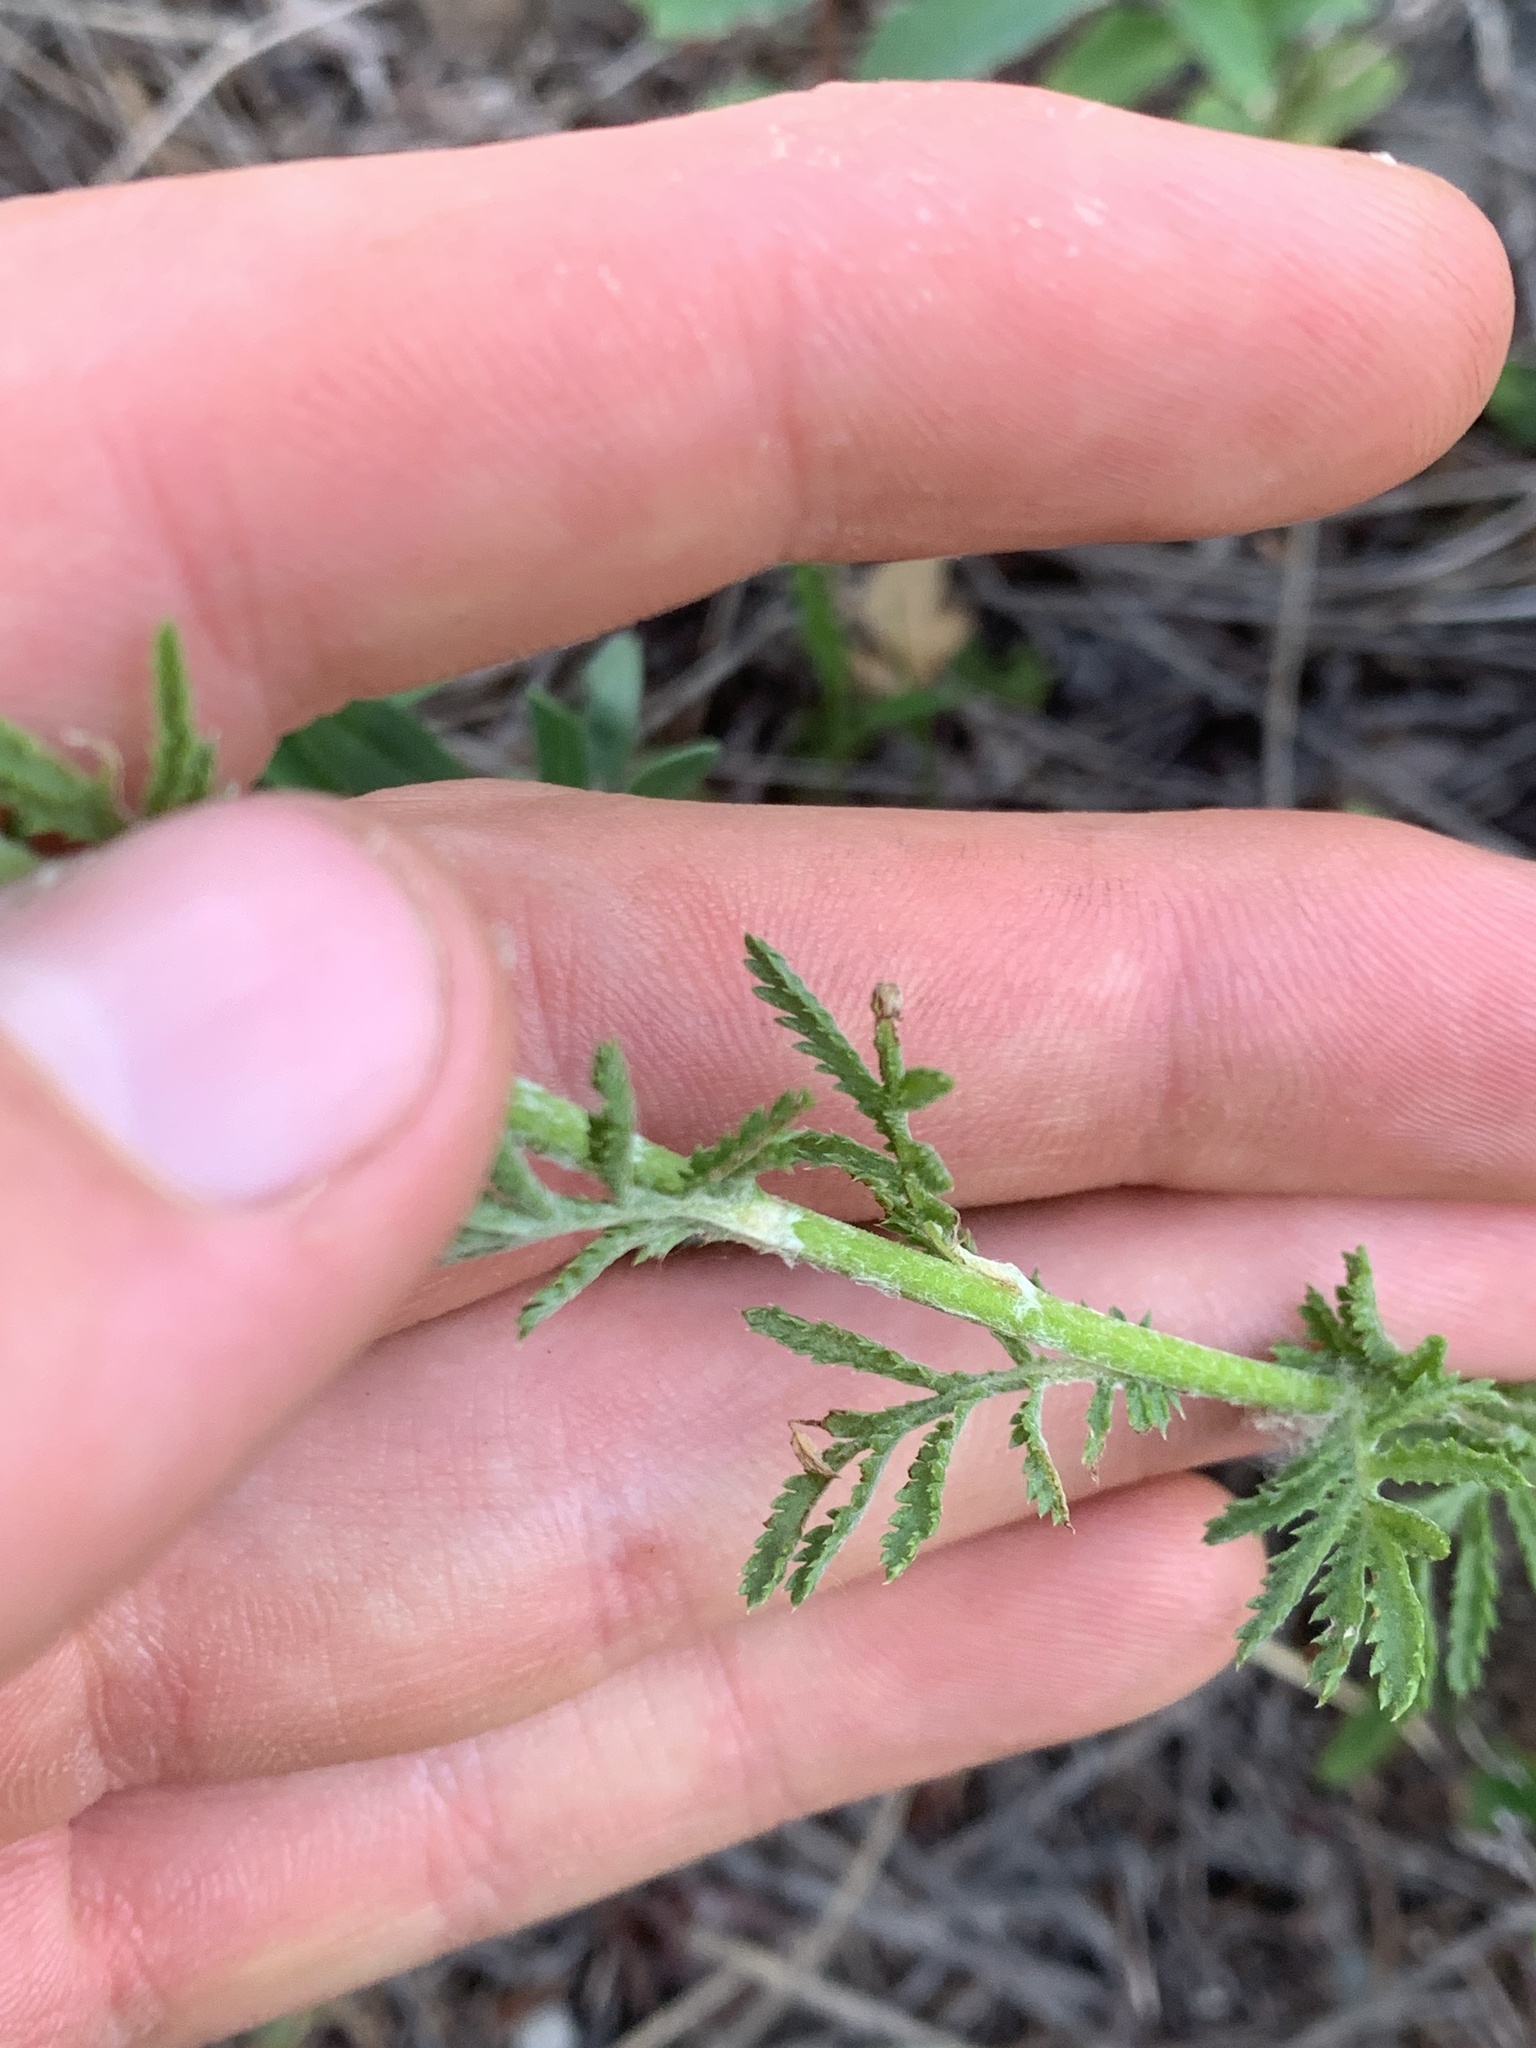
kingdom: Plantae
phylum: Tracheophyta
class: Magnoliopsida
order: Asterales
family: Asteraceae
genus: Cota
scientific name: Cota tinctoria
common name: Golden chamomile
